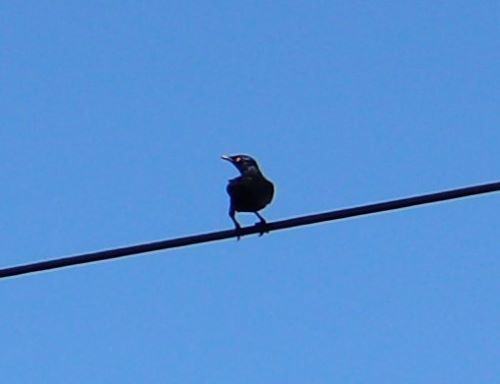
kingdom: Animalia
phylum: Chordata
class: Aves
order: Passeriformes
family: Sturnidae
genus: Lamprotornis
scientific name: Lamprotornis nitens
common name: Cape starling
